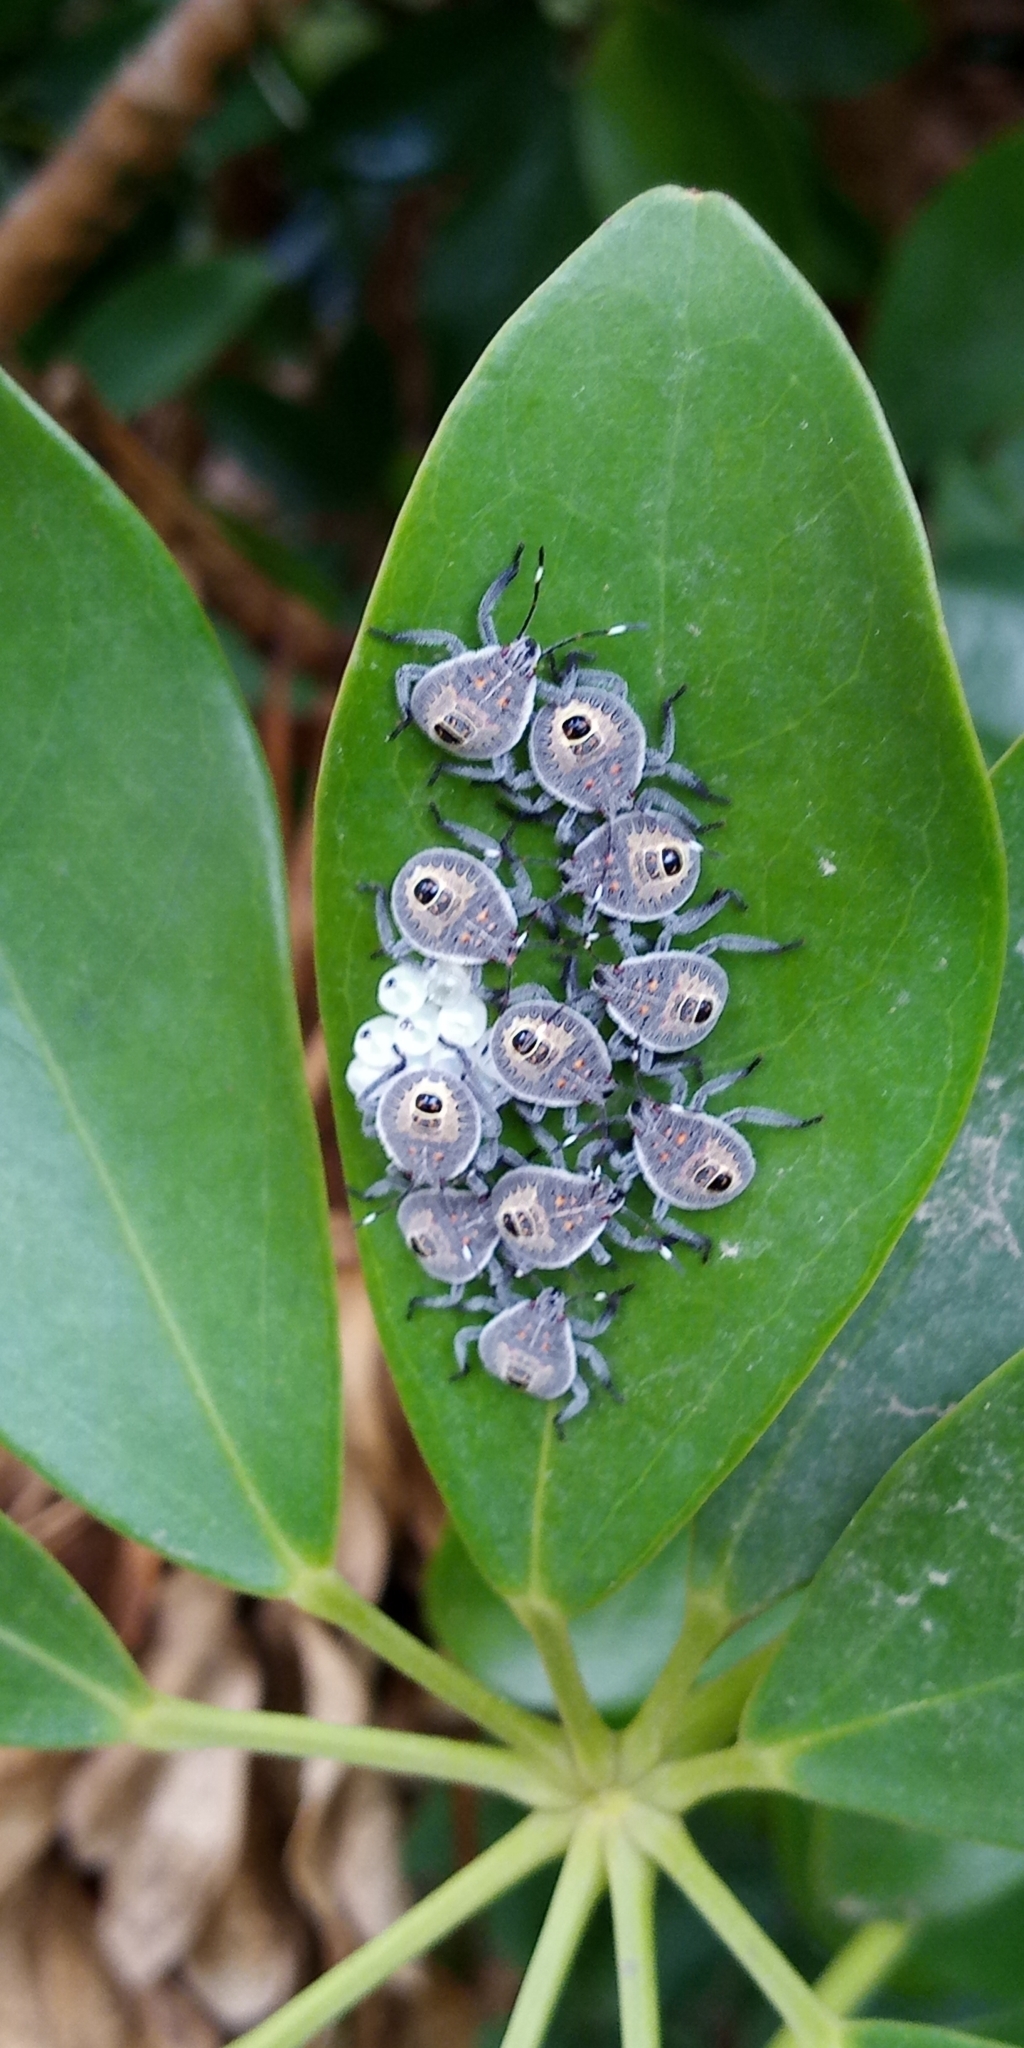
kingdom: Animalia
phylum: Arthropoda
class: Insecta
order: Hemiptera
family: Pentatomidae
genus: Erthesina
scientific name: Erthesina fullo
